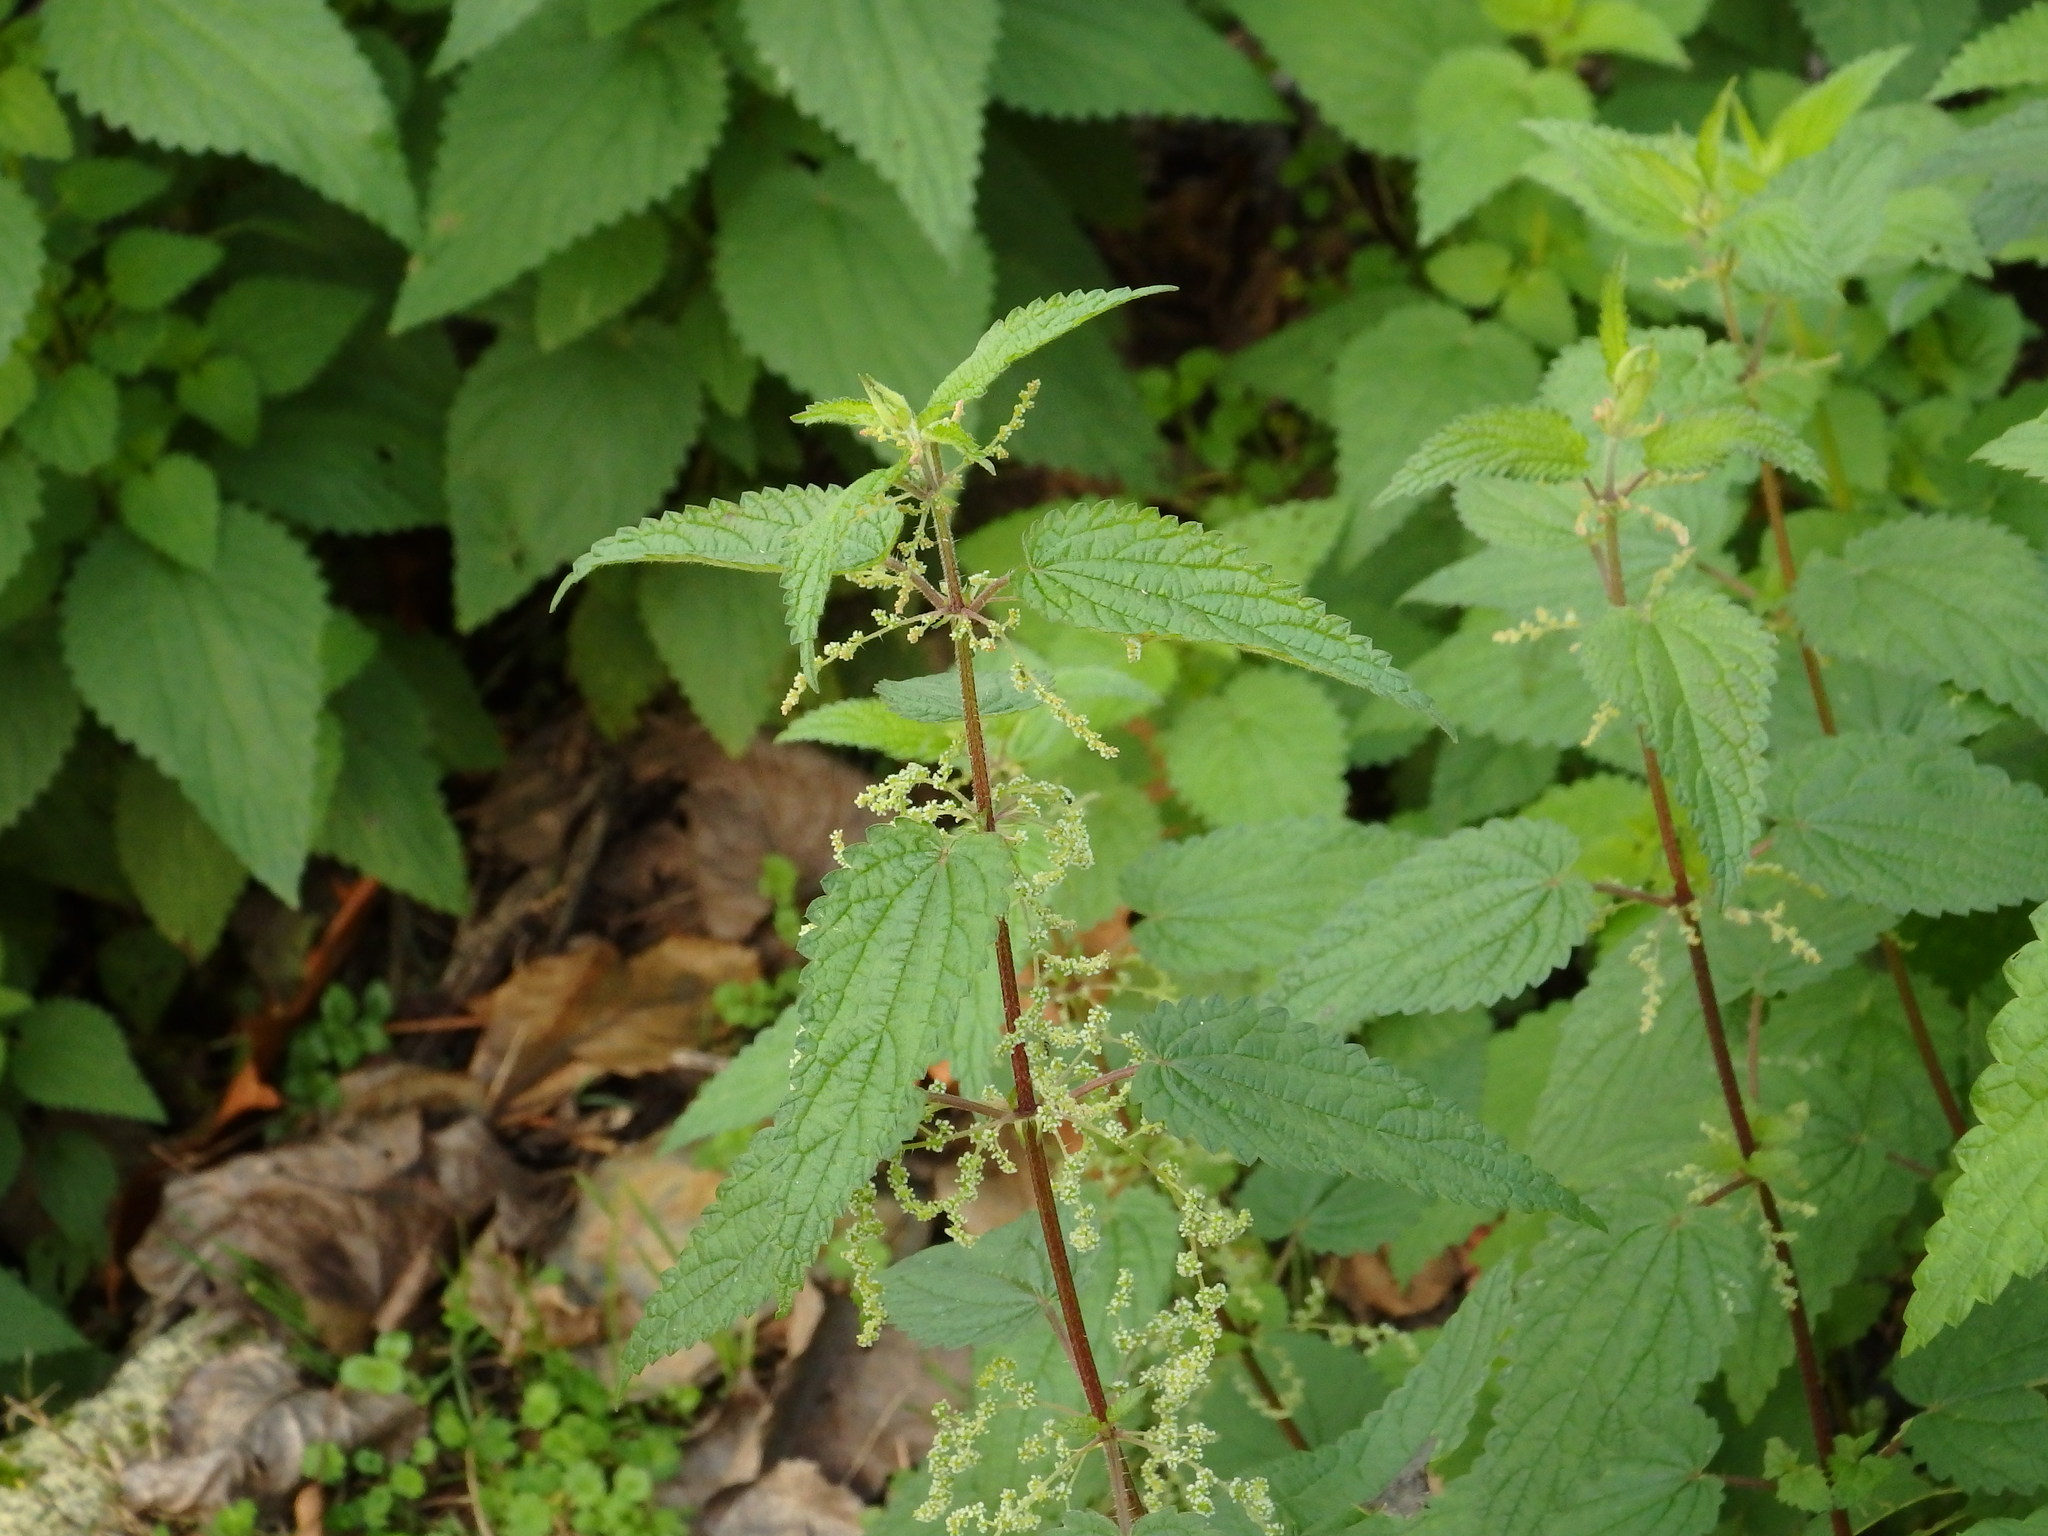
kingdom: Plantae
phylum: Tracheophyta
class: Magnoliopsida
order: Rosales
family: Urticaceae
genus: Urtica
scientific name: Urtica dioica
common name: Common nettle
